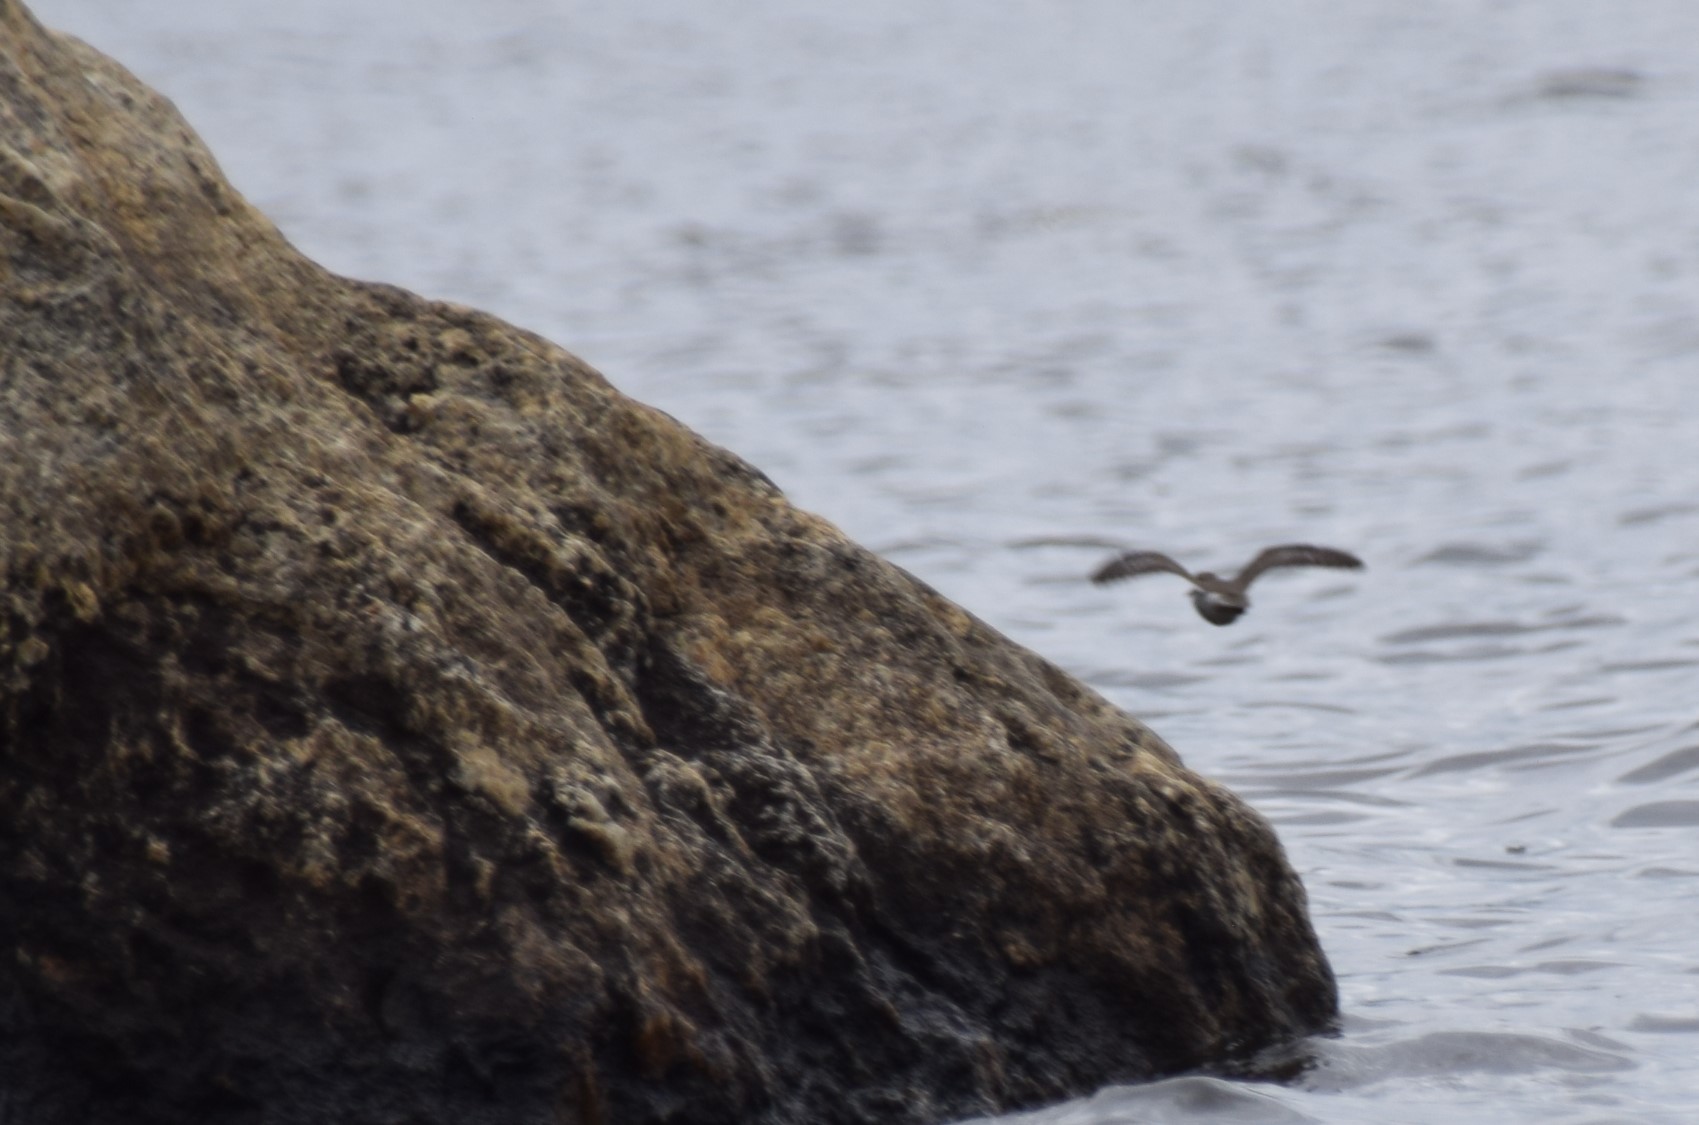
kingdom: Animalia
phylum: Chordata
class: Aves
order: Charadriiformes
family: Scolopacidae
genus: Actitis
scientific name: Actitis macularius
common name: Spotted sandpiper
